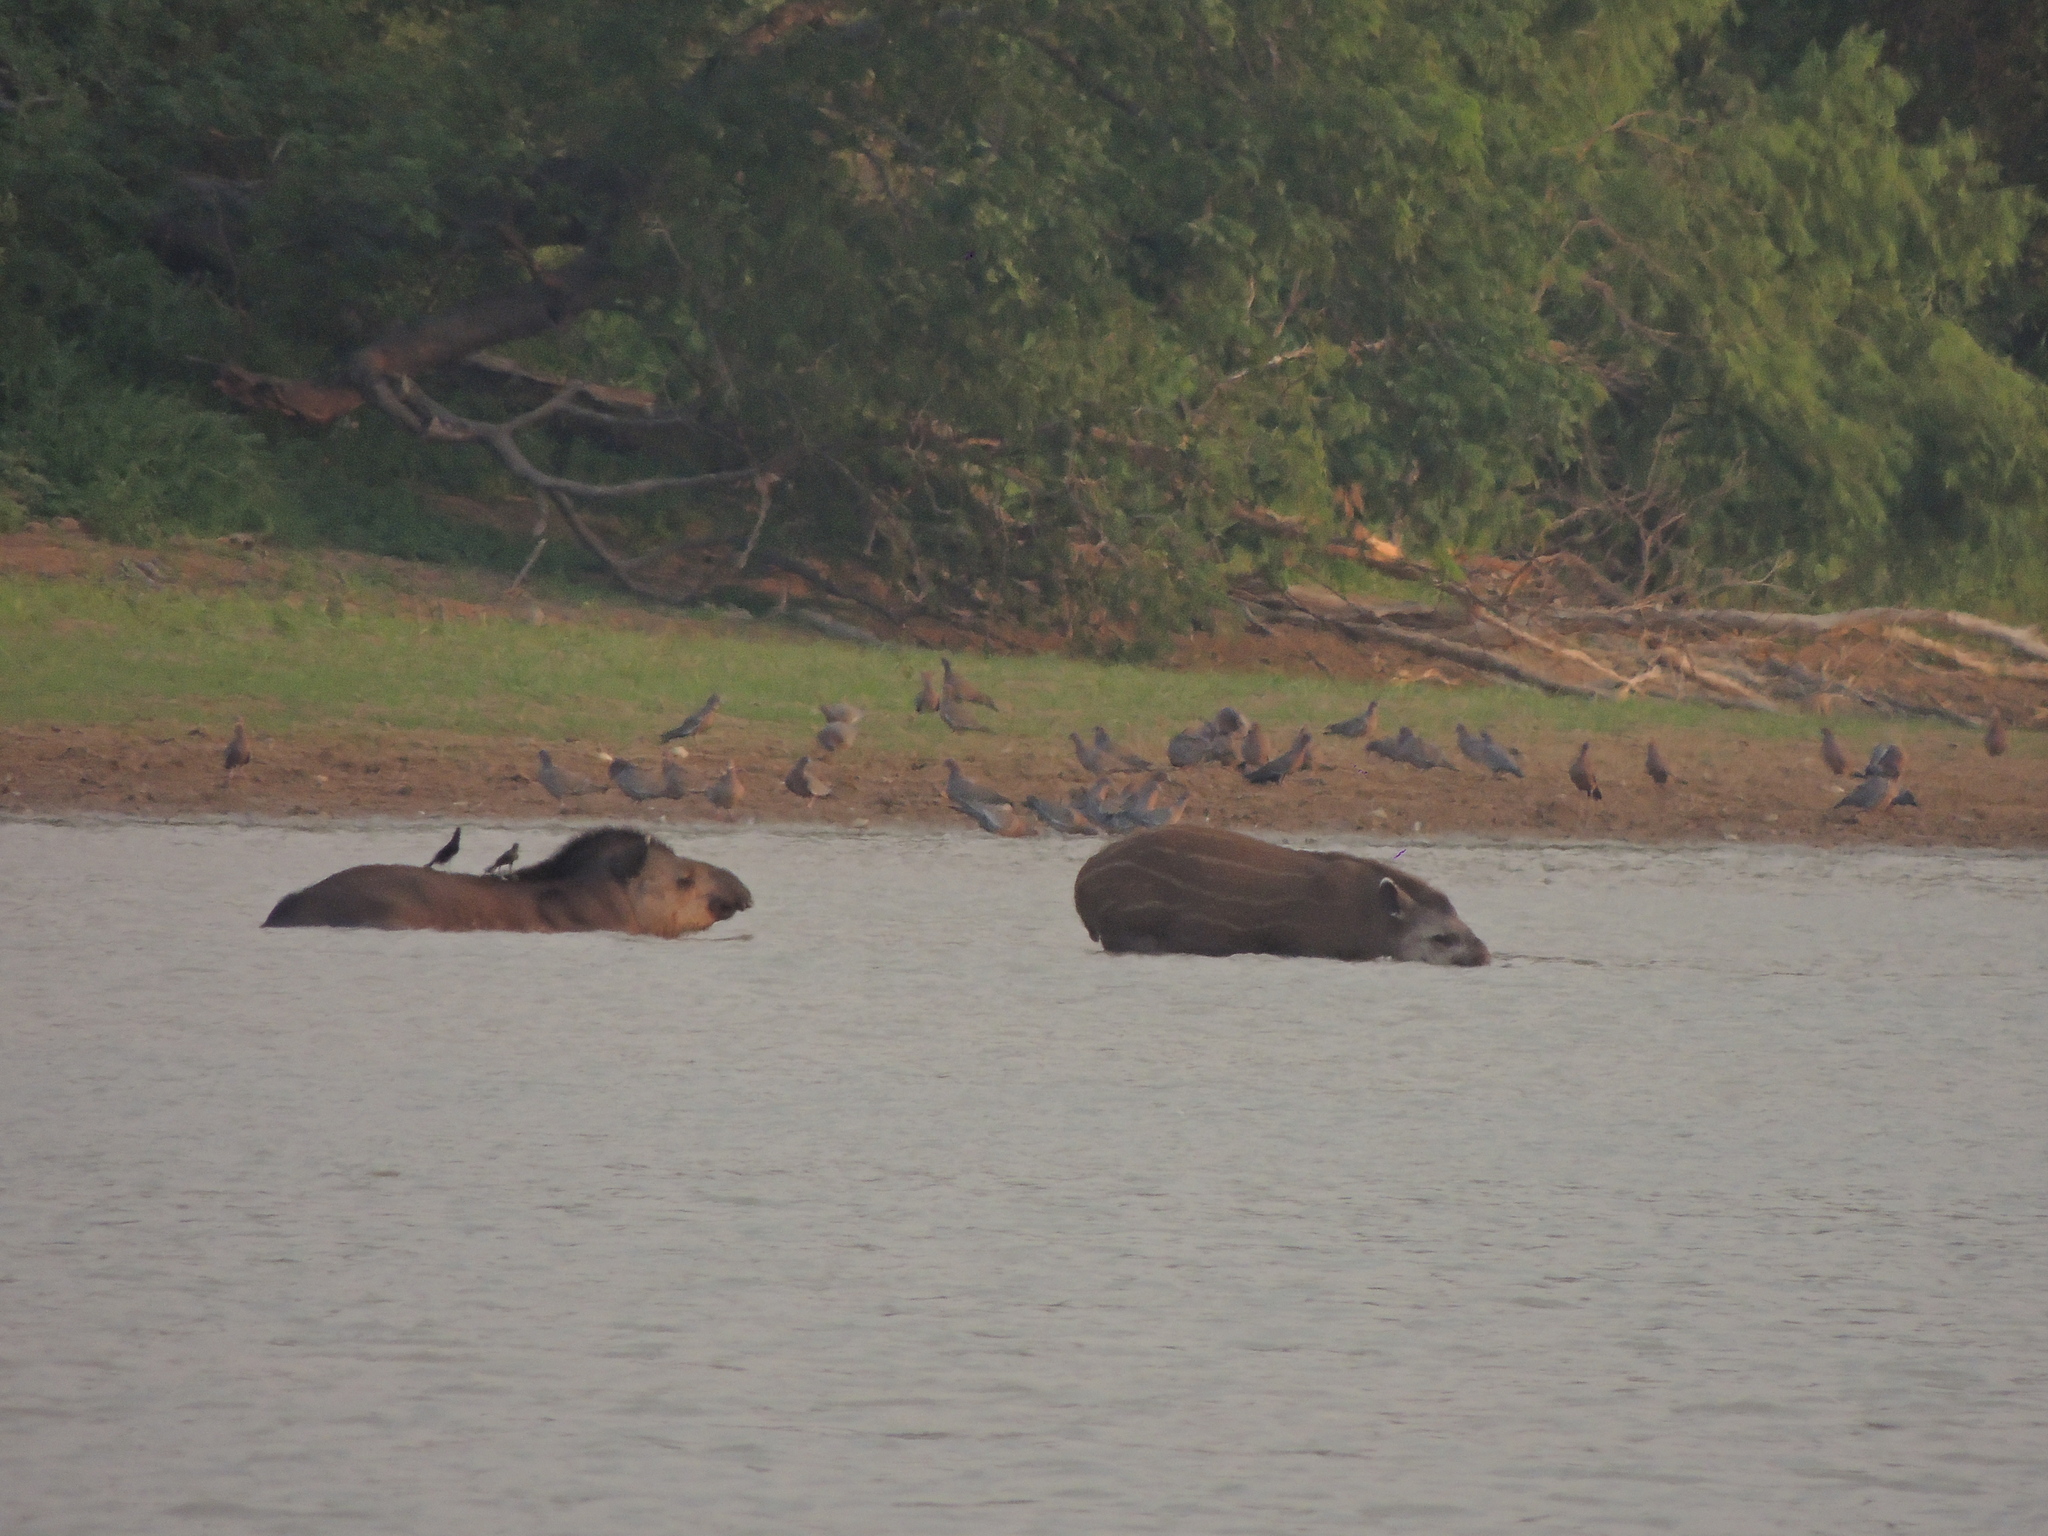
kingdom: Animalia
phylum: Chordata
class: Mammalia
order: Perissodactyla
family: Tapiridae
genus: Tapirus
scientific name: Tapirus terrestris
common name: Brazilian tapir
